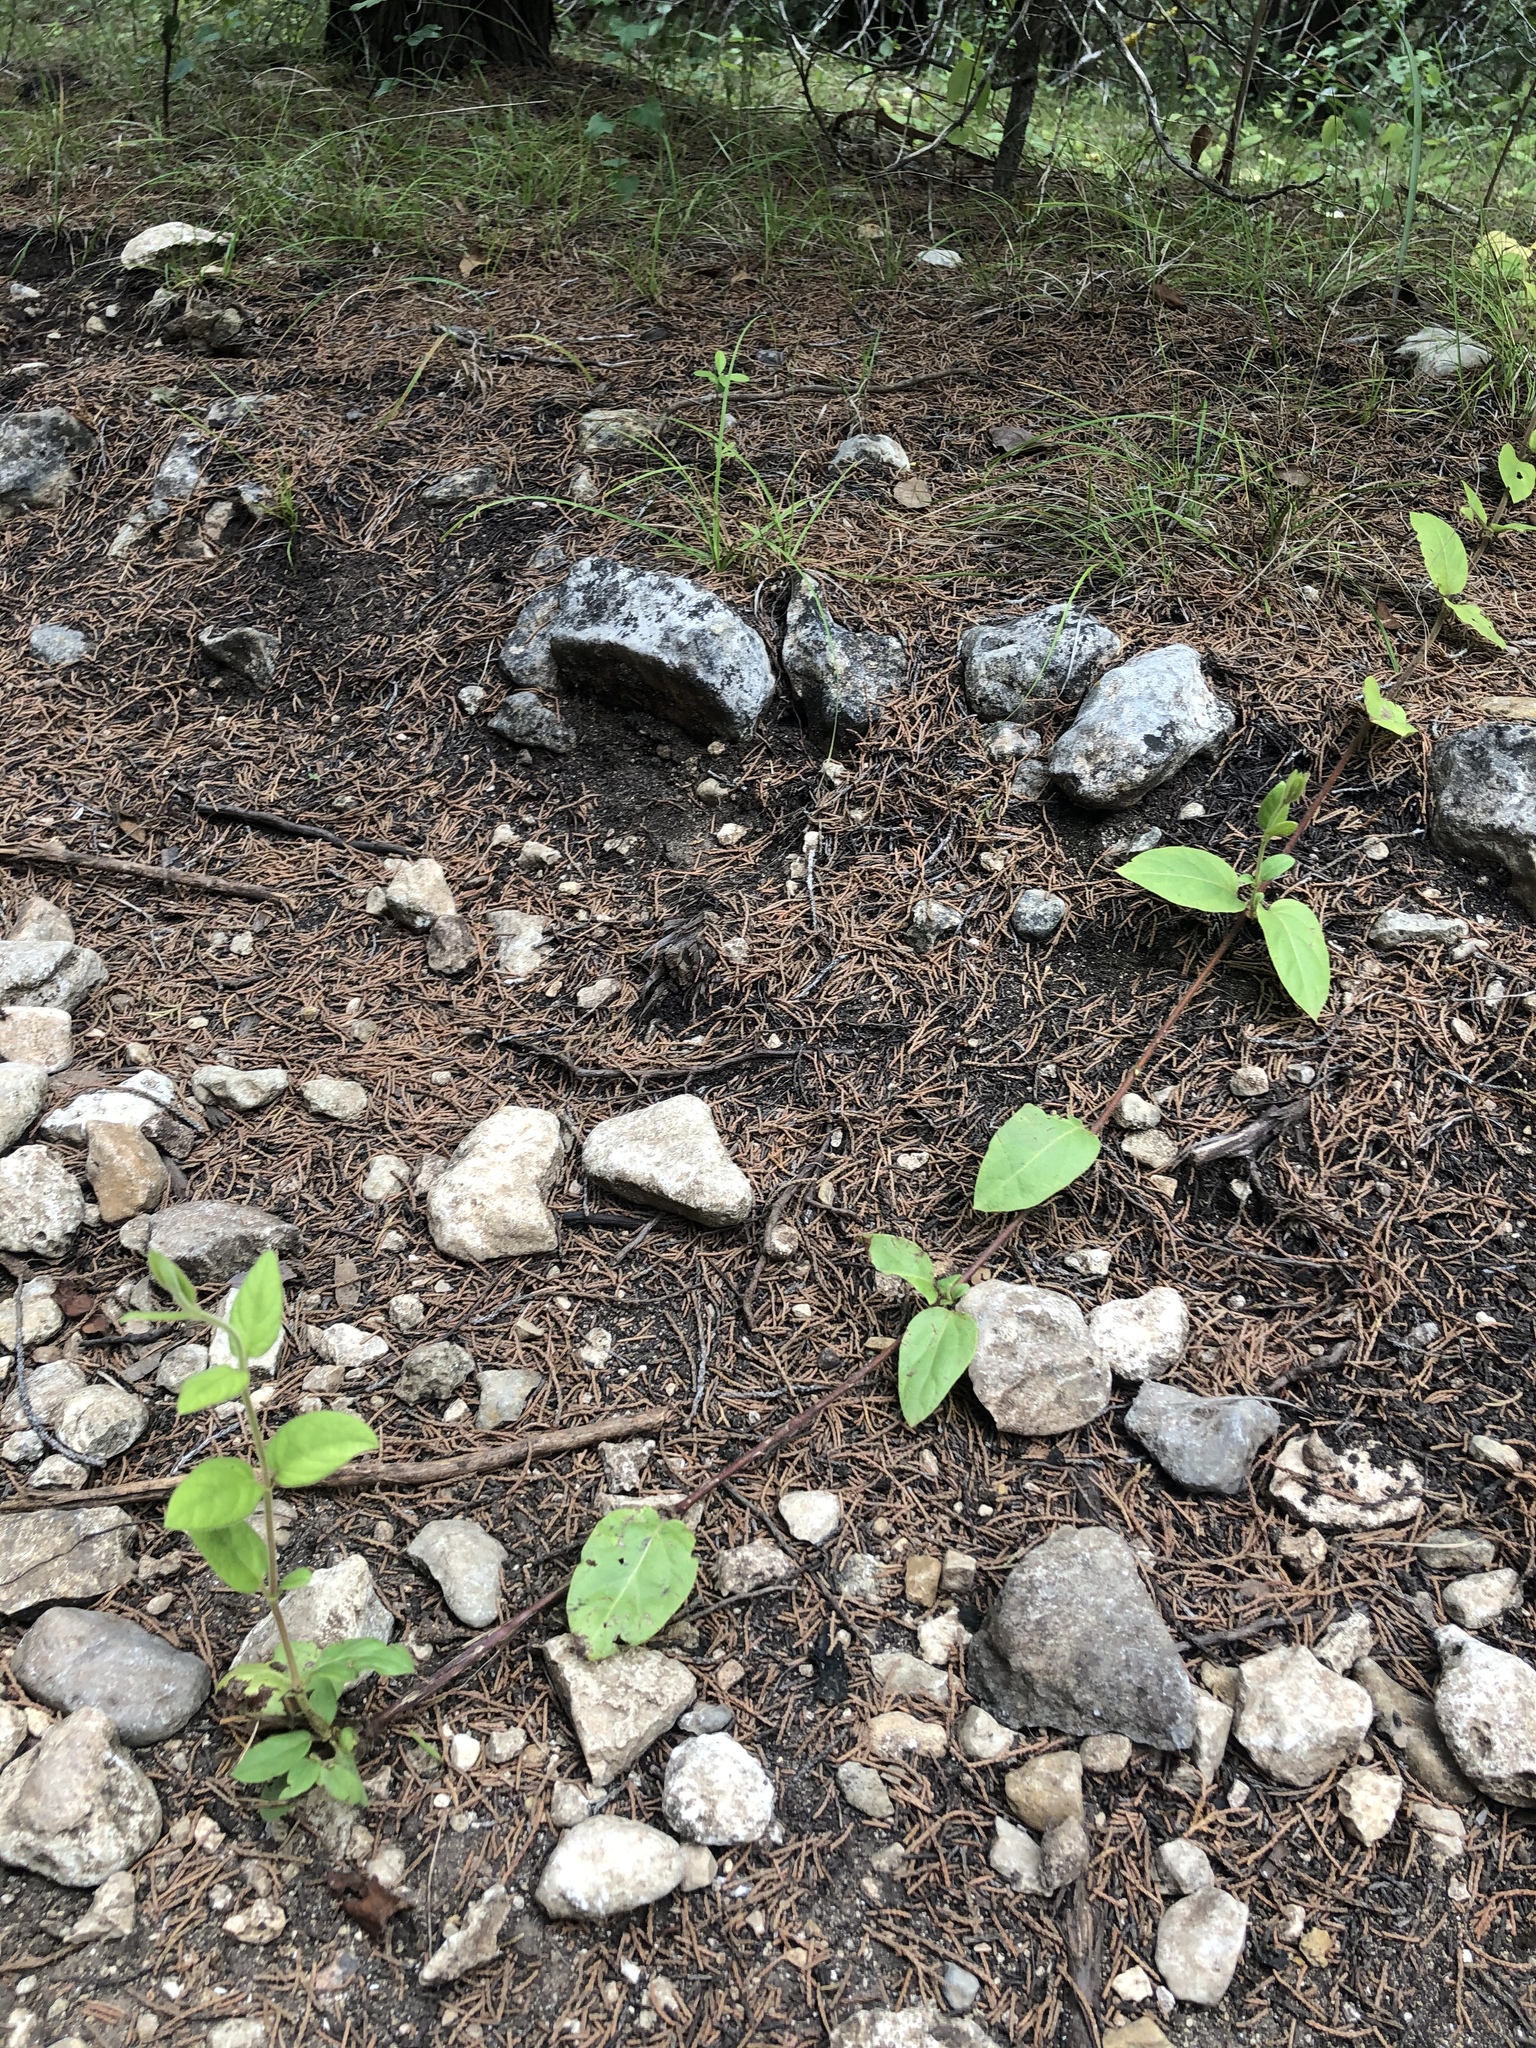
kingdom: Plantae
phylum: Tracheophyta
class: Magnoliopsida
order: Dipsacales
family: Caprifoliaceae
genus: Lonicera
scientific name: Lonicera japonica
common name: Japanese honeysuckle
